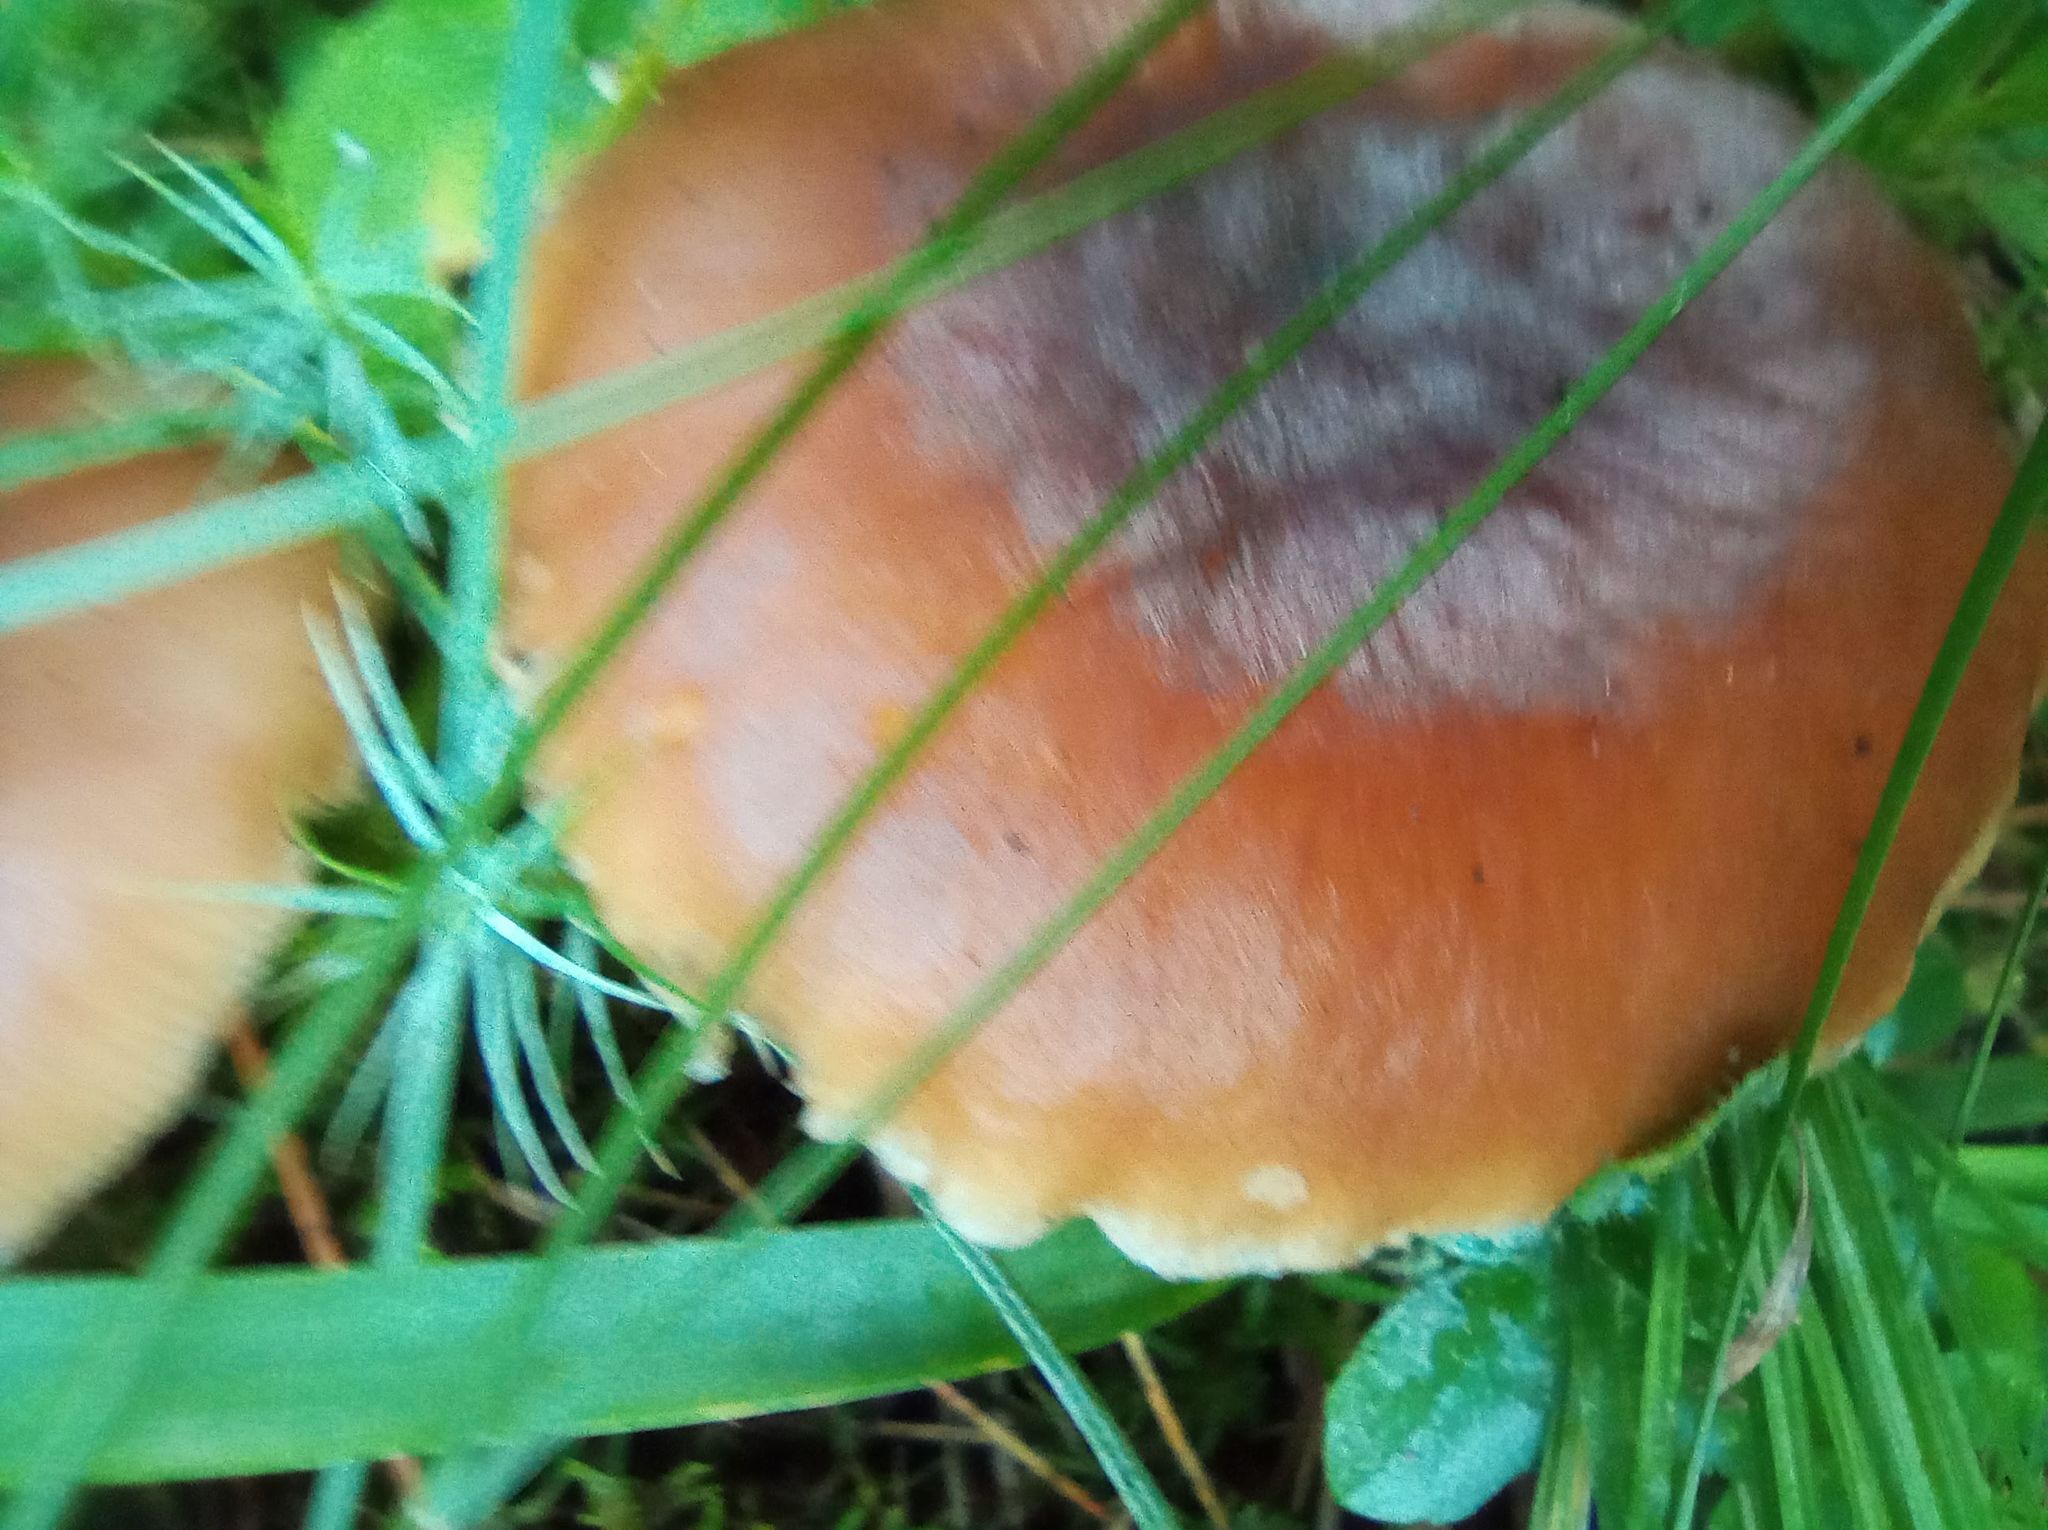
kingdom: Fungi
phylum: Basidiomycota
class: Agaricomycetes
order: Agaricales
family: Omphalotaceae
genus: Rhodocollybia
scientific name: Rhodocollybia butyracea
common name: Butter cap
